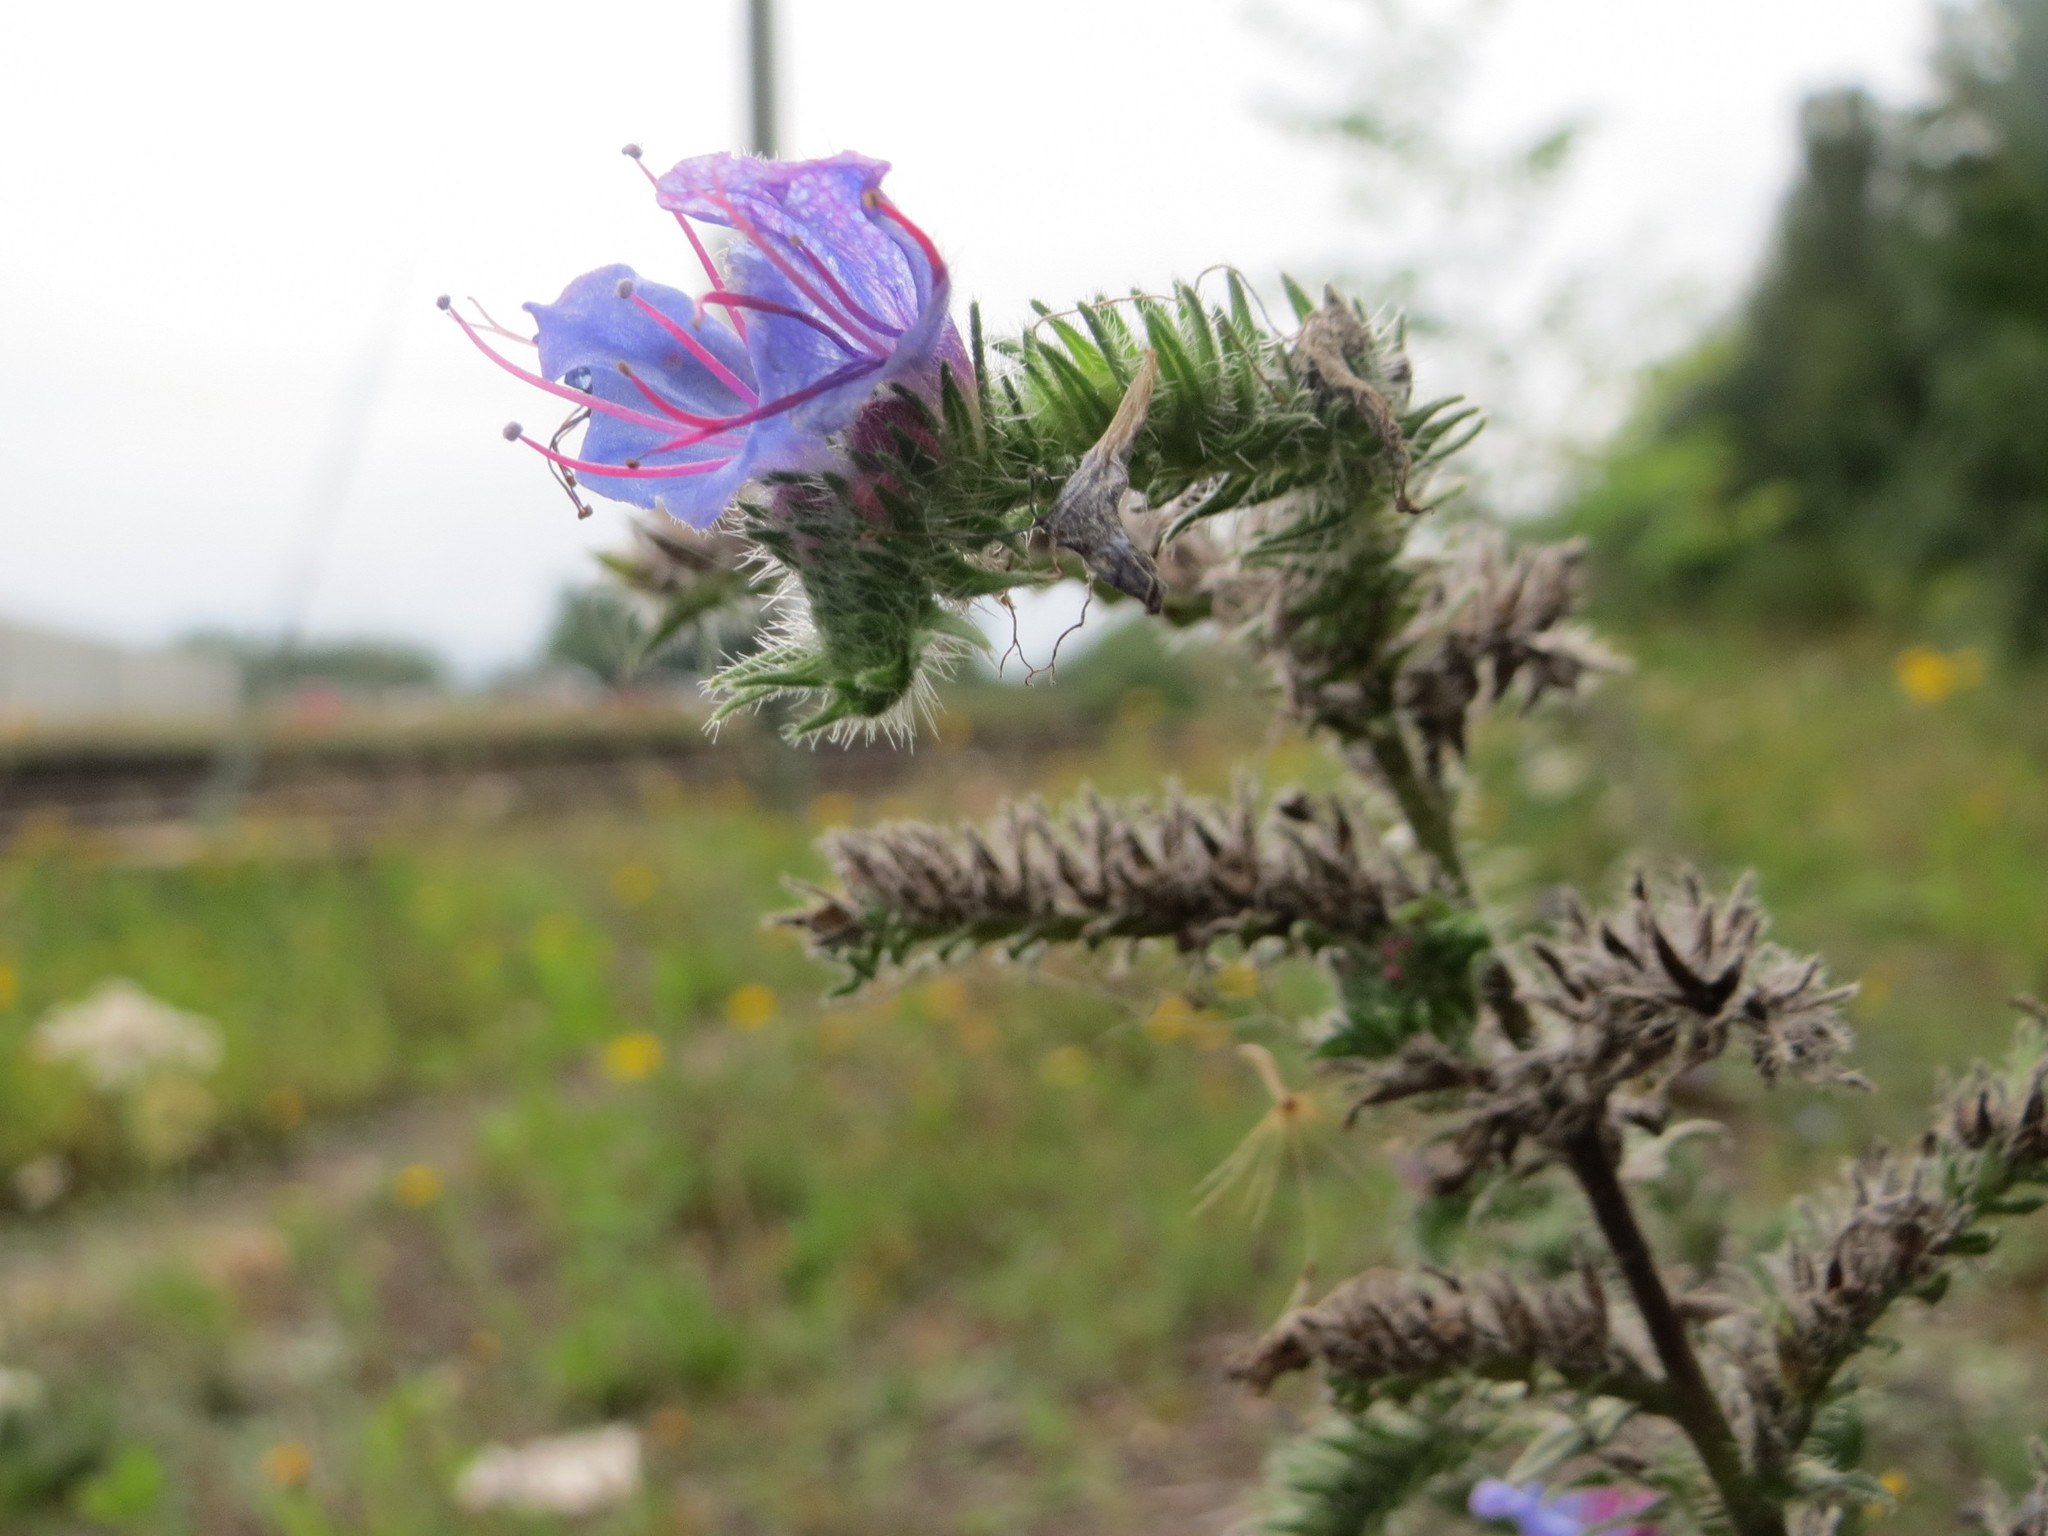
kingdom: Plantae
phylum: Tracheophyta
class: Magnoliopsida
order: Boraginales
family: Boraginaceae
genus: Echium
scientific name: Echium vulgare
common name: Common viper's bugloss
